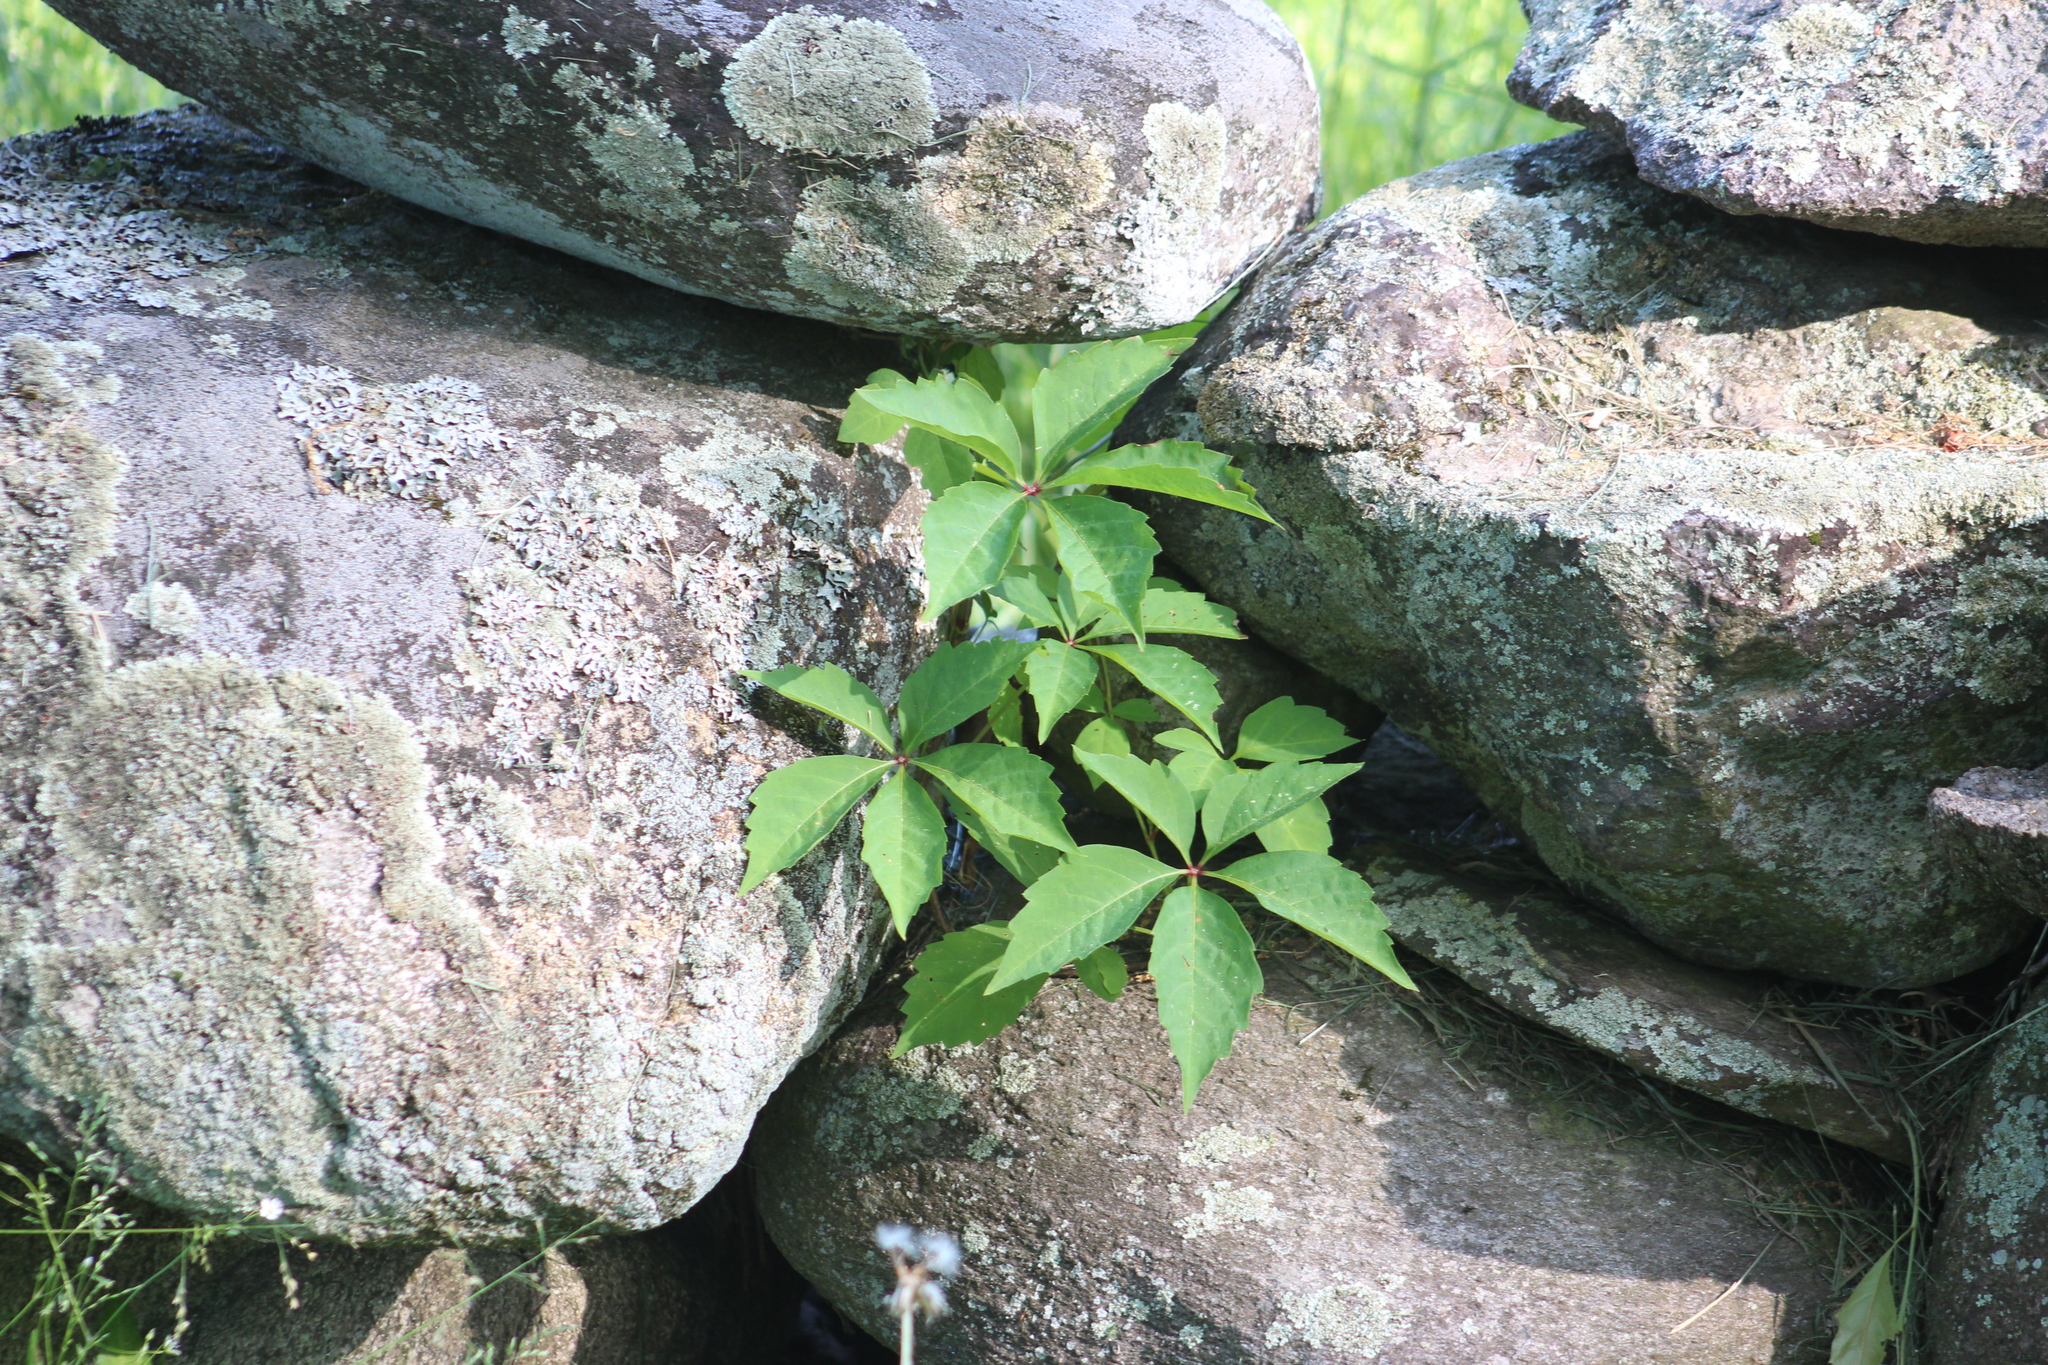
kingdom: Plantae
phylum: Tracheophyta
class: Magnoliopsida
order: Vitales
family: Vitaceae
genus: Parthenocissus
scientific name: Parthenocissus quinquefolia
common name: Virginia-creeper
